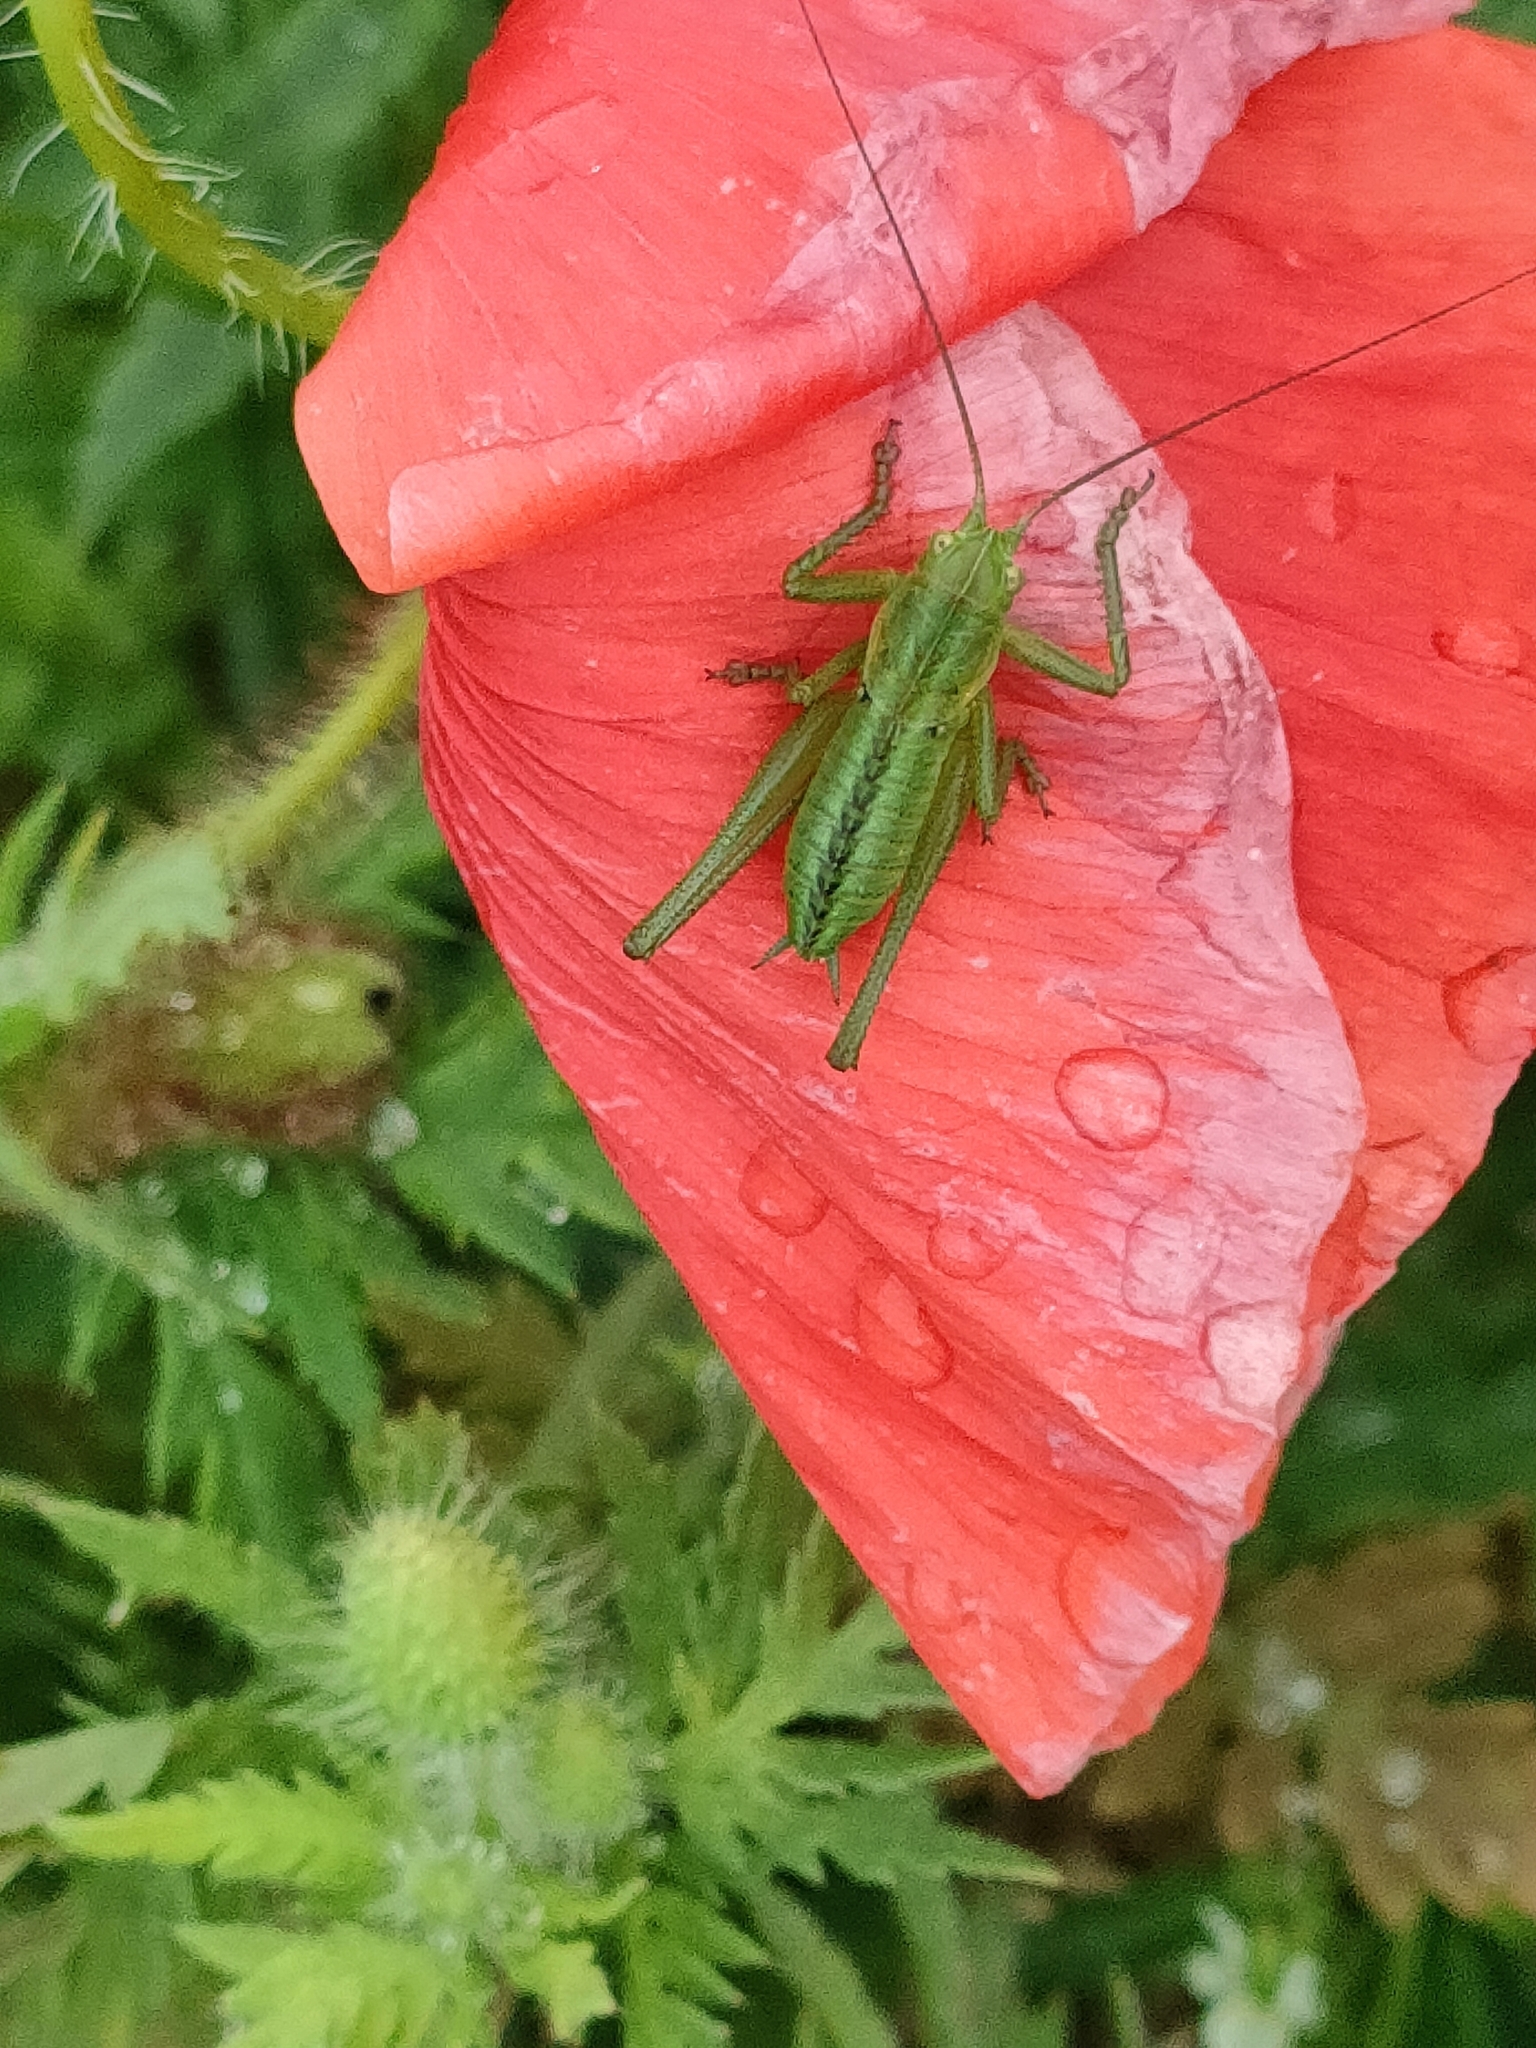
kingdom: Animalia
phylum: Arthropoda
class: Insecta
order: Orthoptera
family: Tettigoniidae
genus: Tettigonia
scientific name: Tettigonia viridissima
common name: Great green bush-cricket
